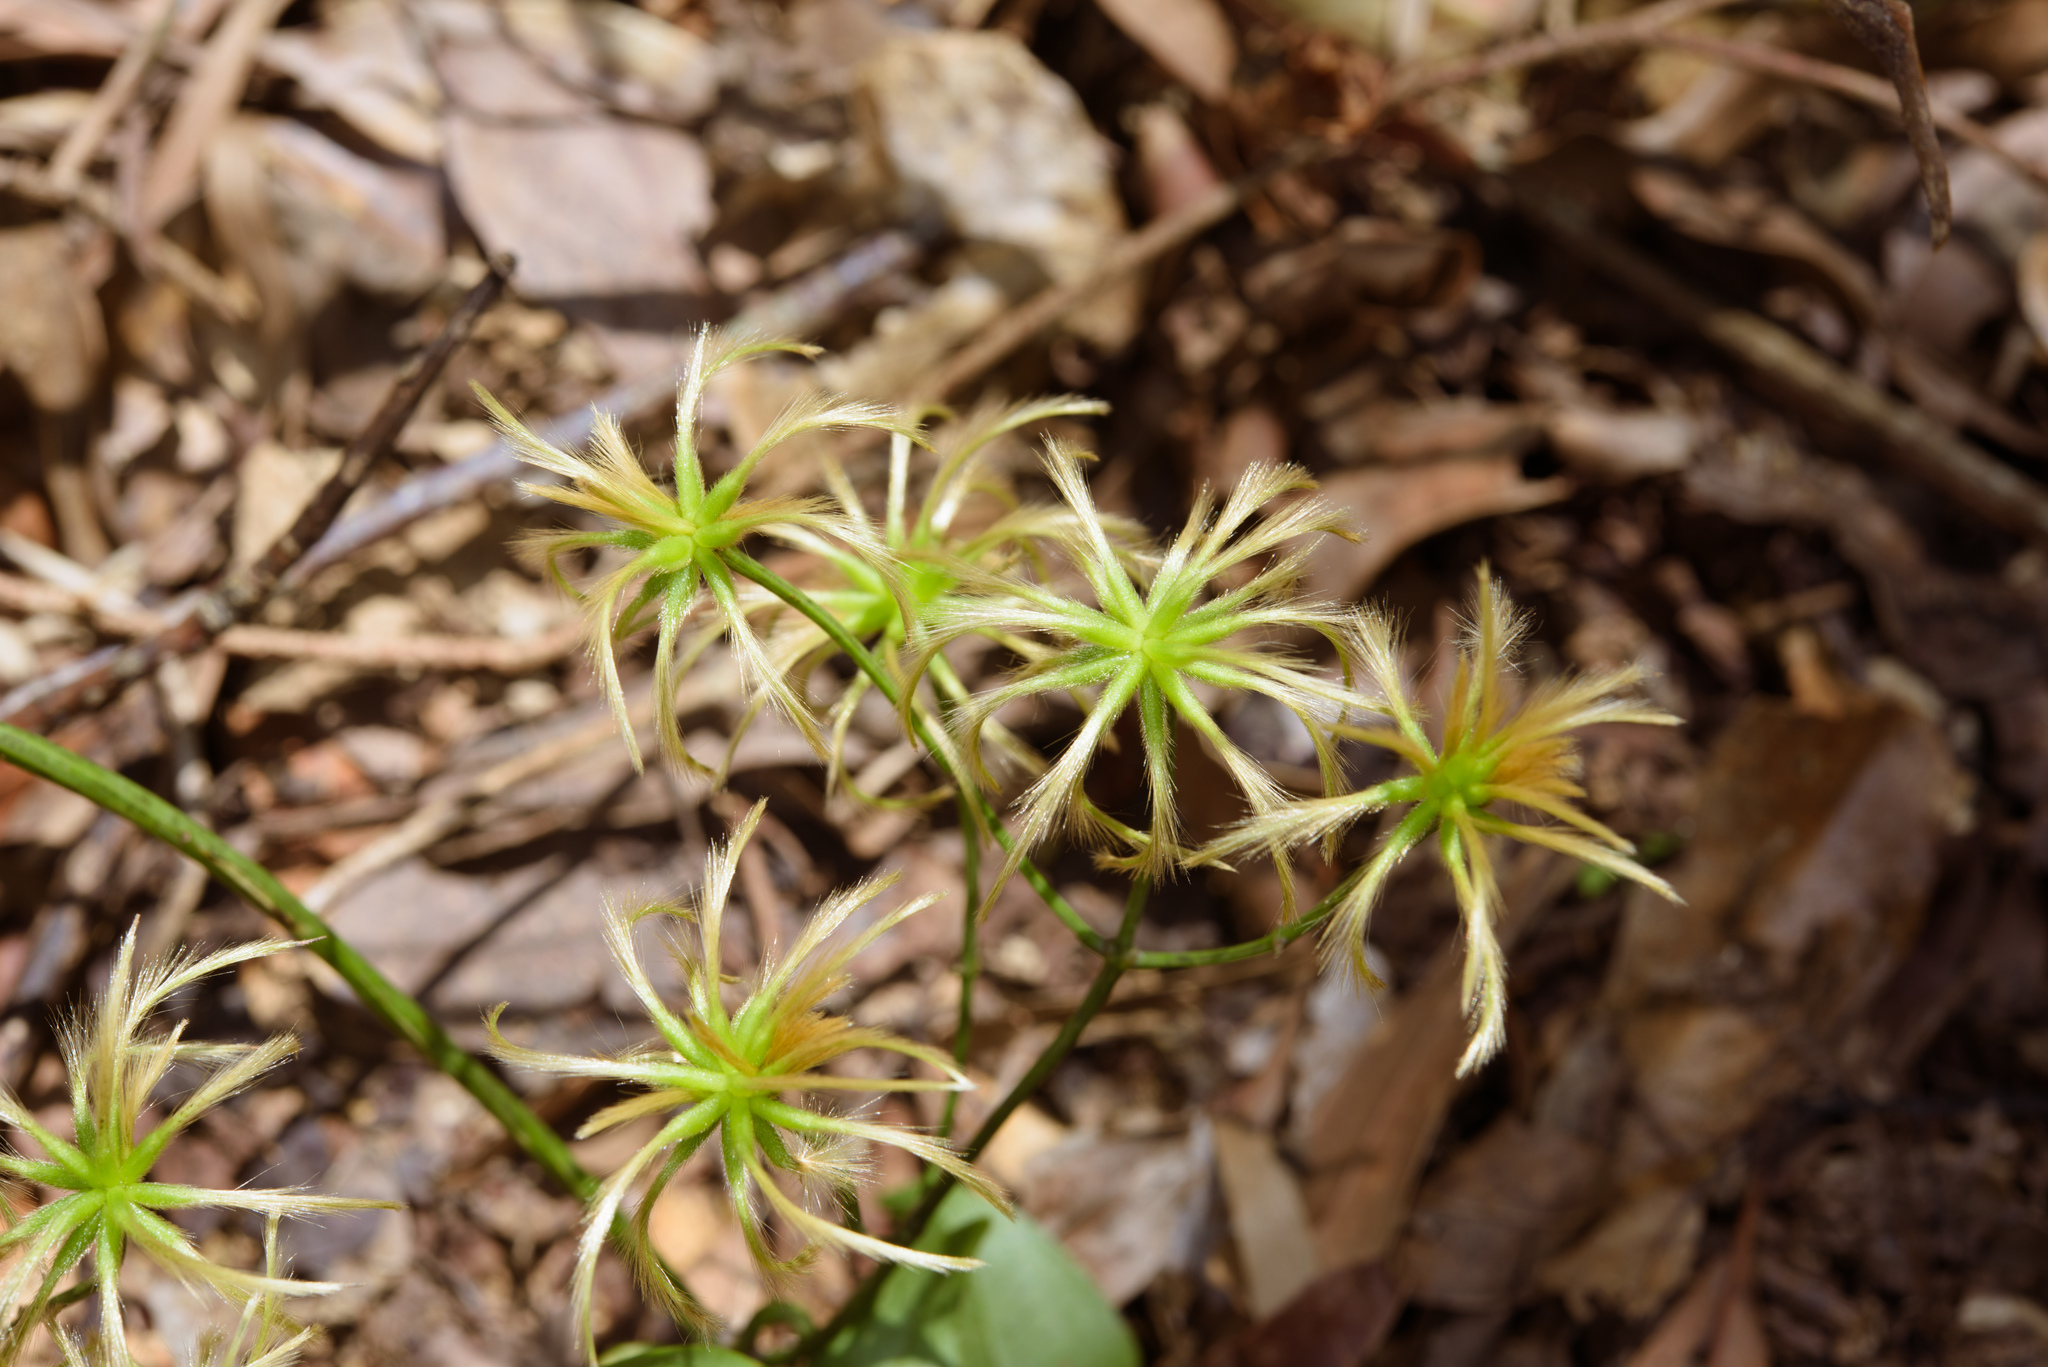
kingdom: Plantae
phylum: Tracheophyta
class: Magnoliopsida
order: Ranunculales
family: Ranunculaceae
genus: Clematis
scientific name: Clematis crassifolia
